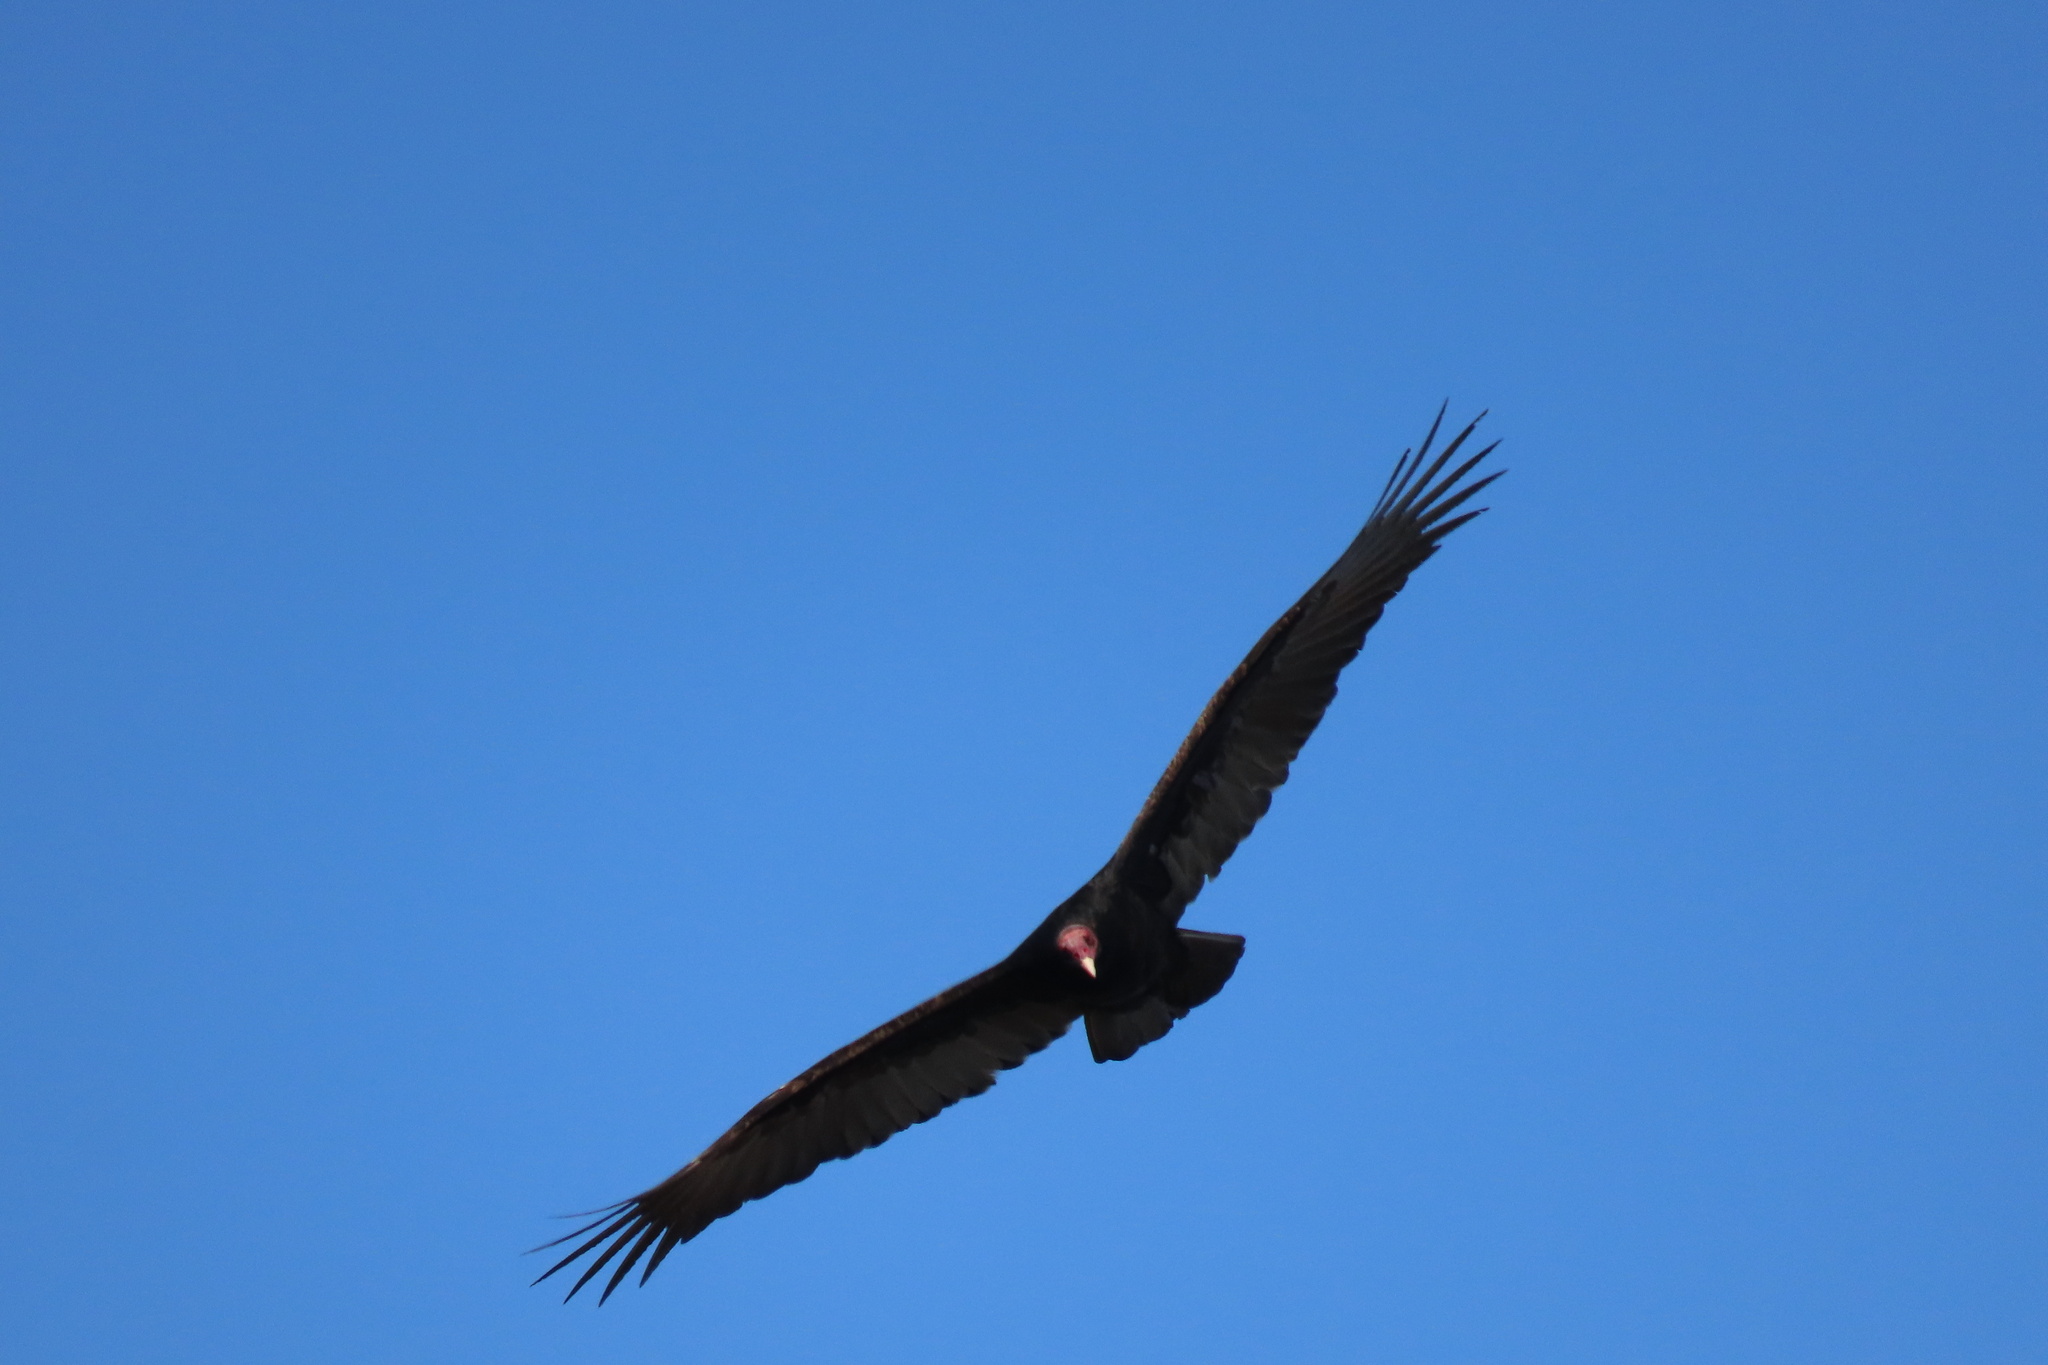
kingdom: Animalia
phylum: Chordata
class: Aves
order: Accipitriformes
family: Cathartidae
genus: Cathartes
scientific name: Cathartes aura
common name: Turkey vulture
